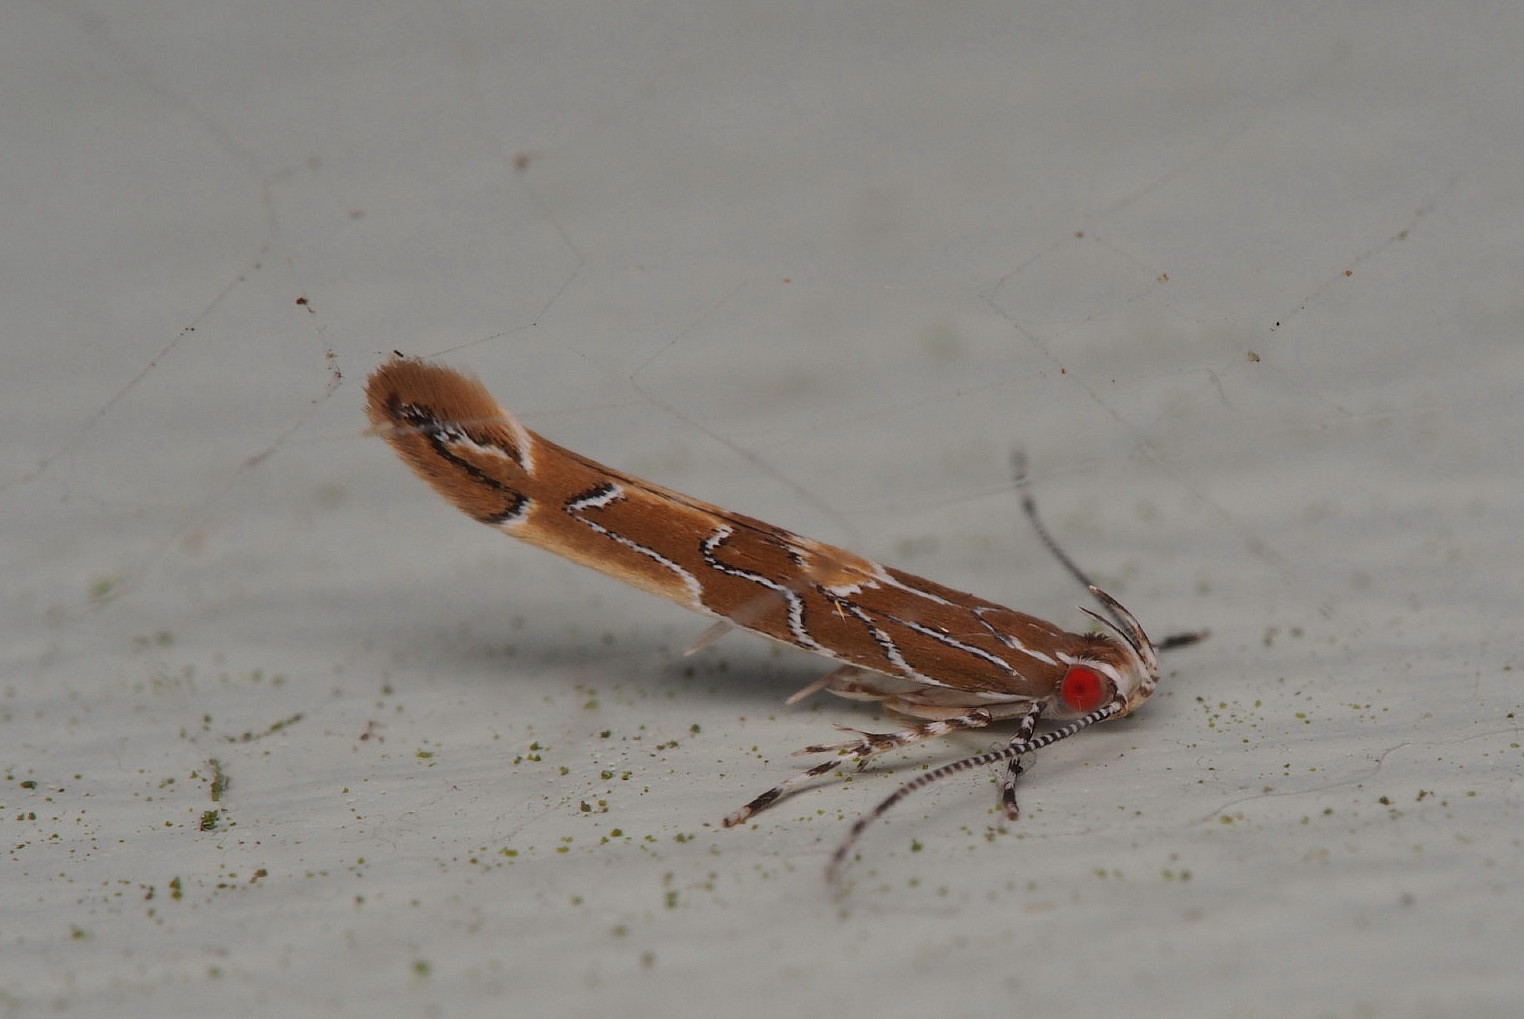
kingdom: Animalia
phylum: Arthropoda
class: Insecta
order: Lepidoptera
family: Cosmopterigidae
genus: Pyroderces
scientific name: Pyroderces apparitella
